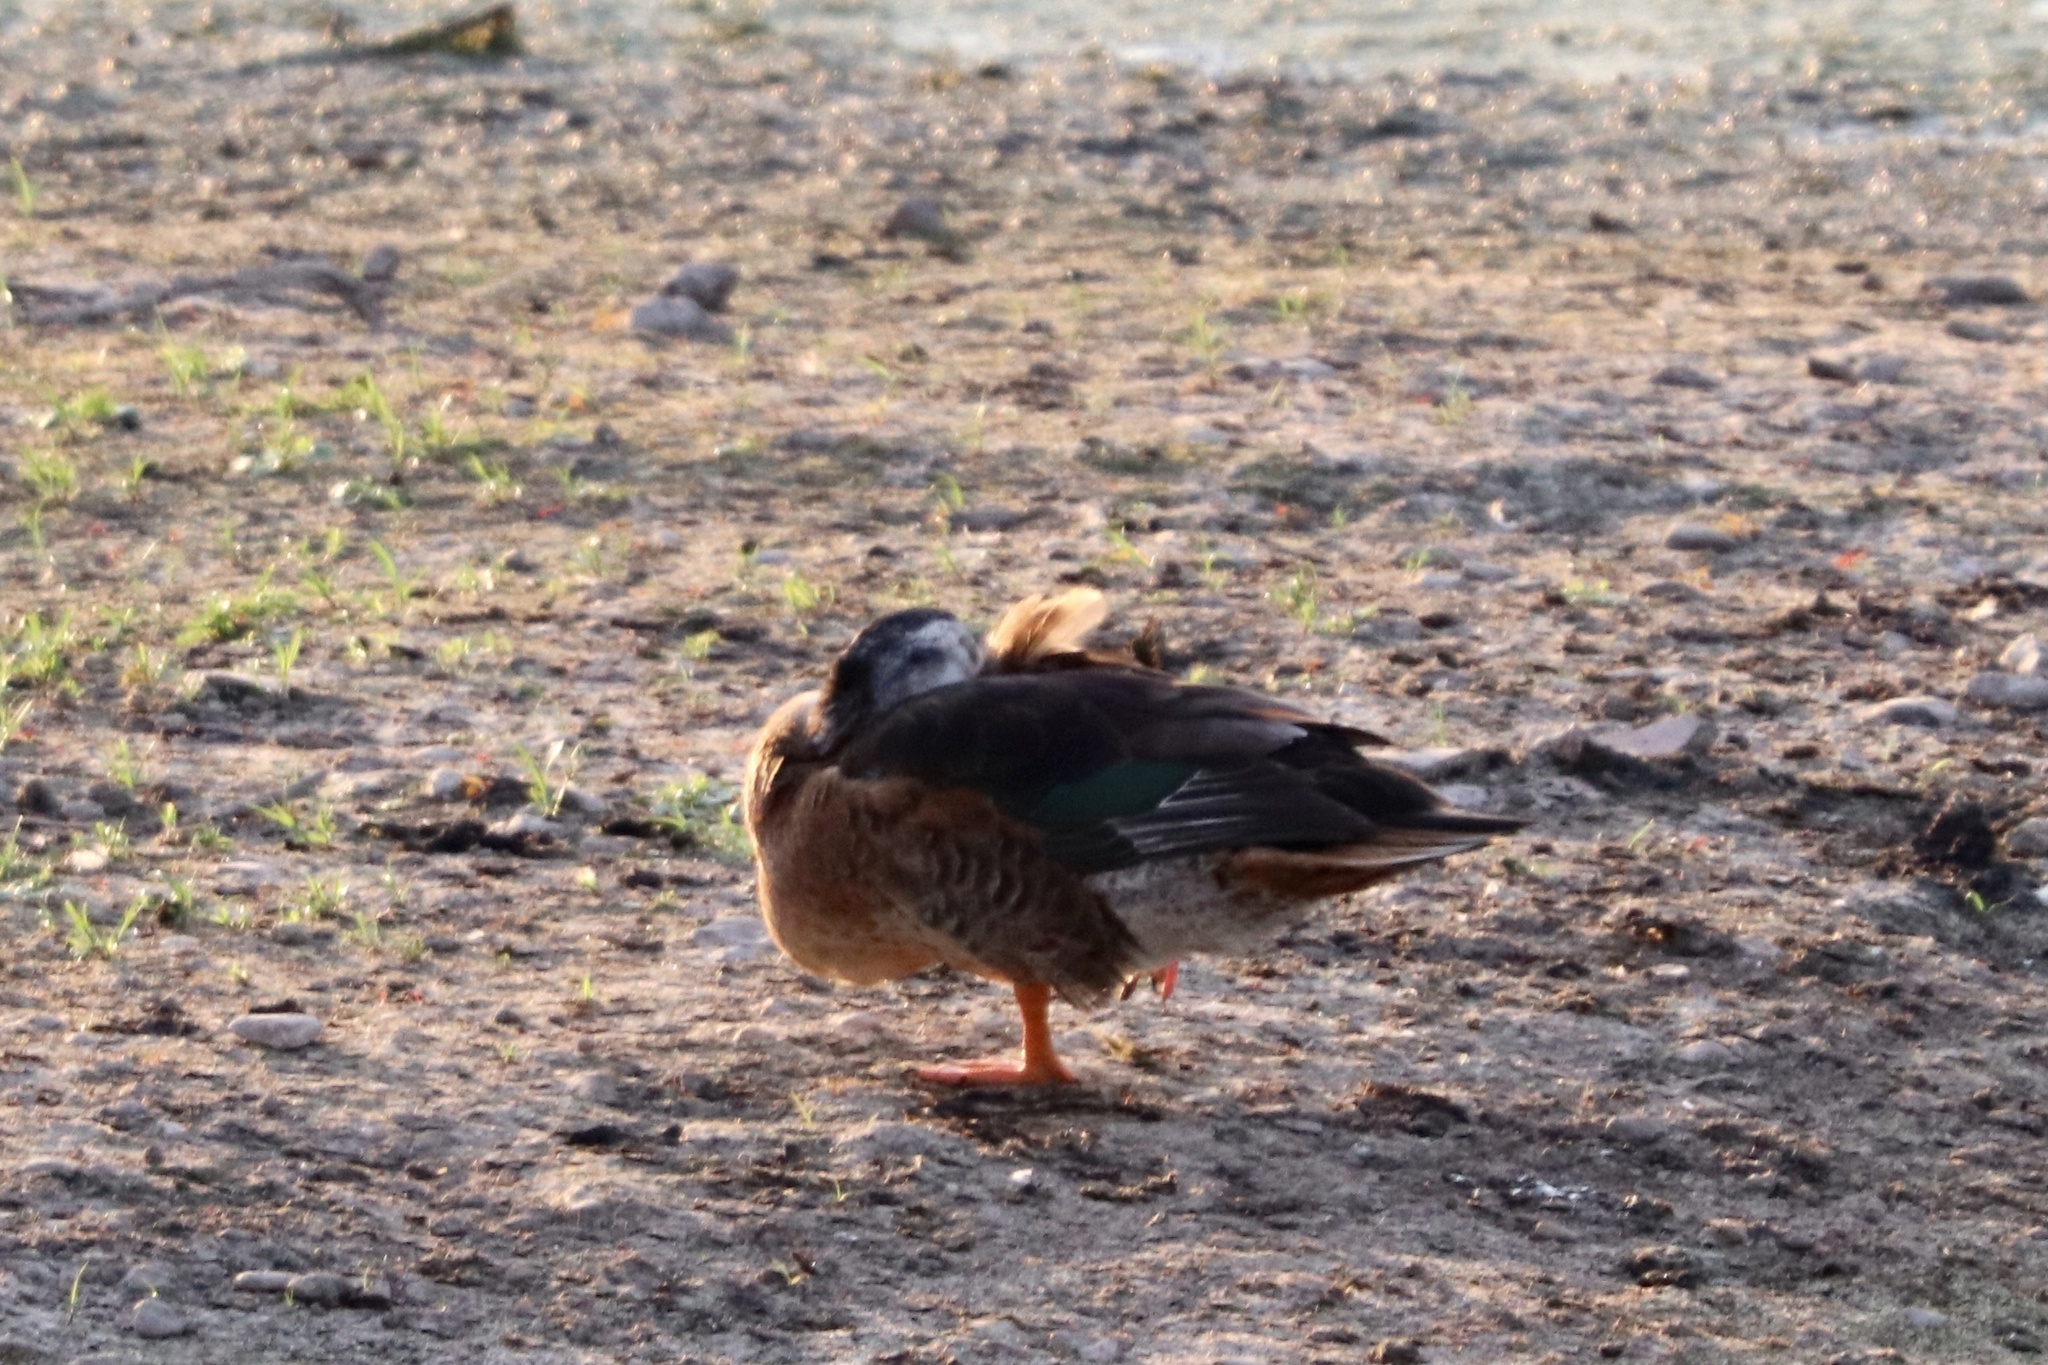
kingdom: Animalia
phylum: Chordata
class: Aves
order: Anseriformes
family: Anatidae
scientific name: Anatidae
